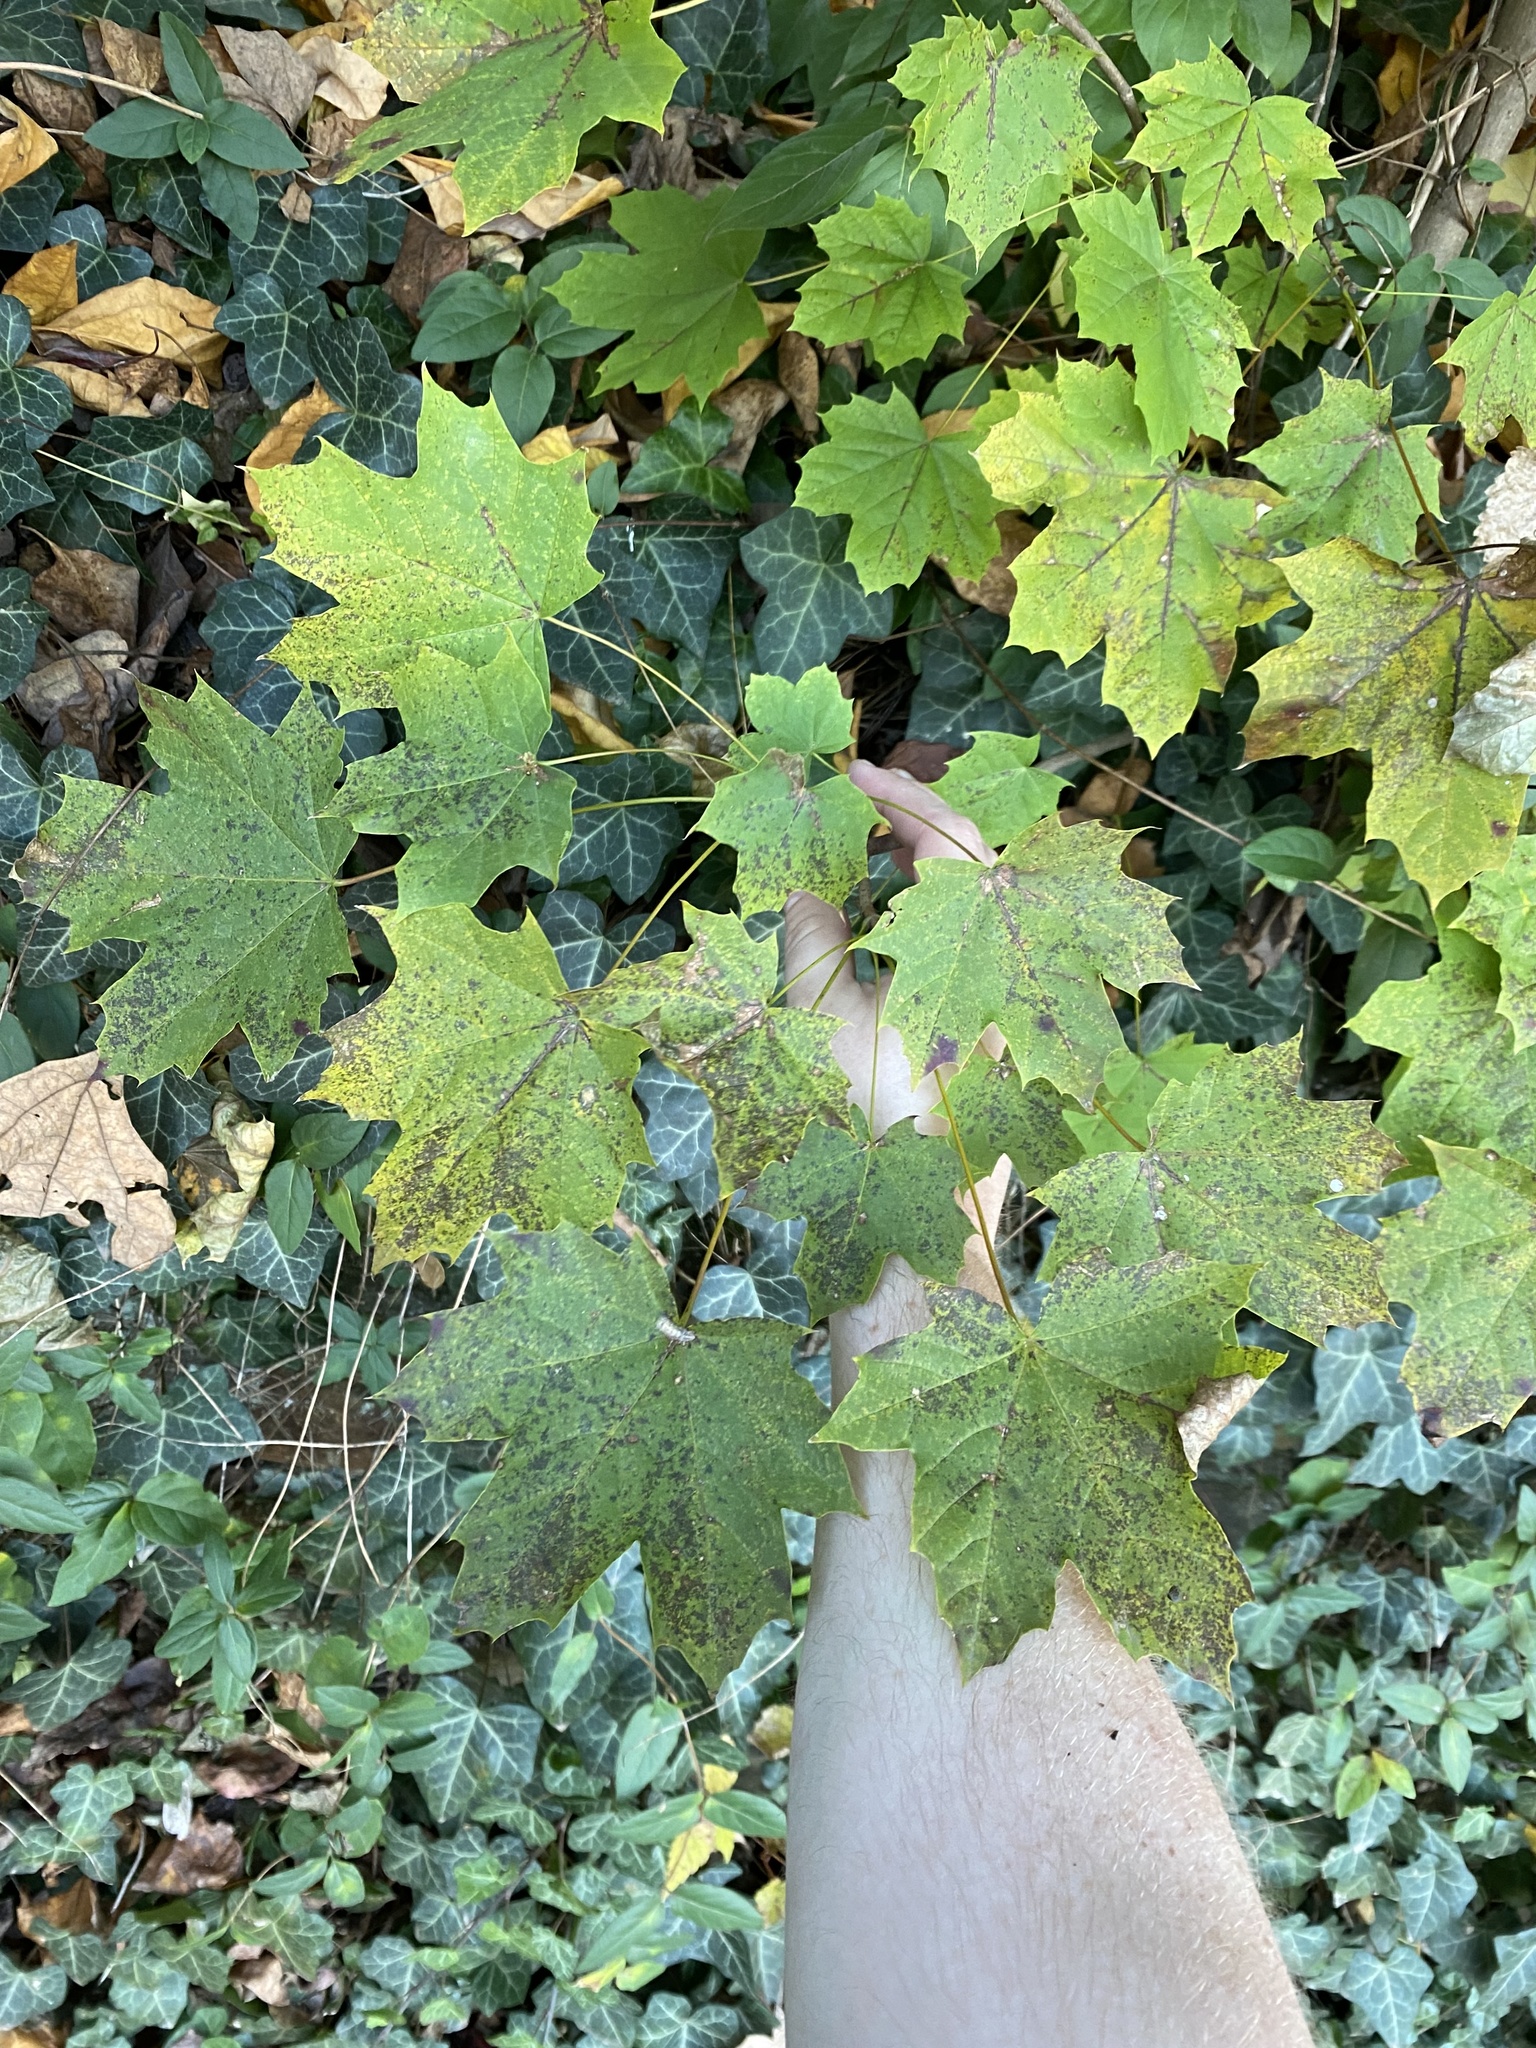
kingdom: Plantae
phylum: Tracheophyta
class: Magnoliopsida
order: Sapindales
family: Sapindaceae
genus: Acer
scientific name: Acer platanoides
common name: Norway maple
